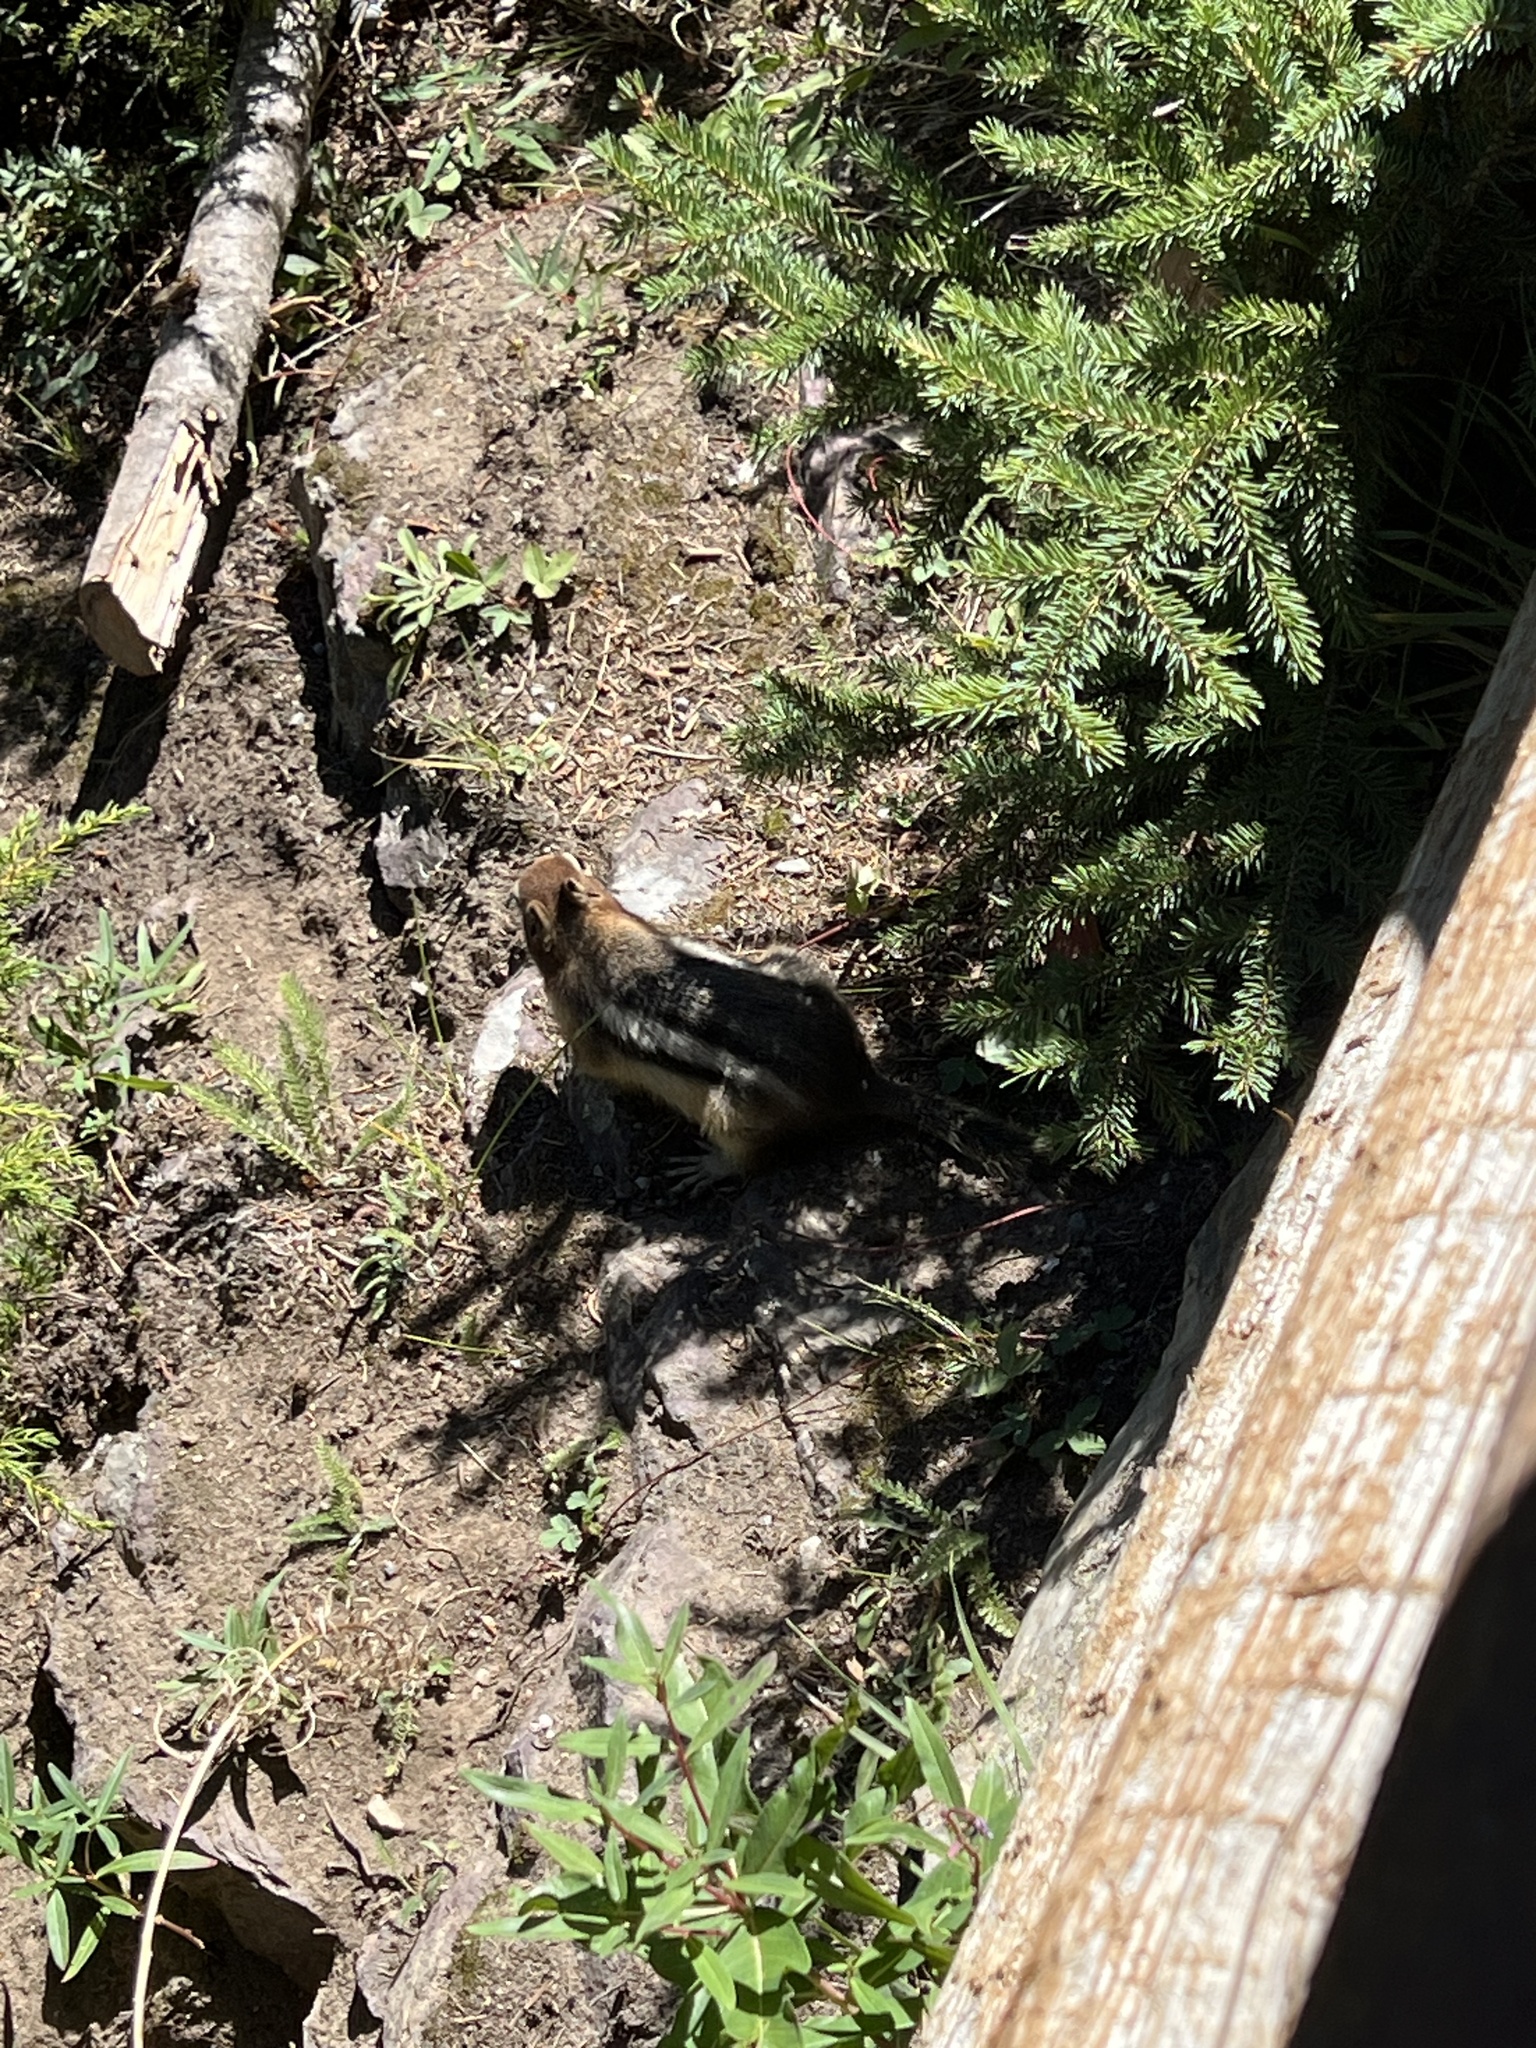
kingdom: Animalia
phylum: Chordata
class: Mammalia
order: Rodentia
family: Sciuridae
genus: Callospermophilus
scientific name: Callospermophilus lateralis
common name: Golden-mantled ground squirrel
